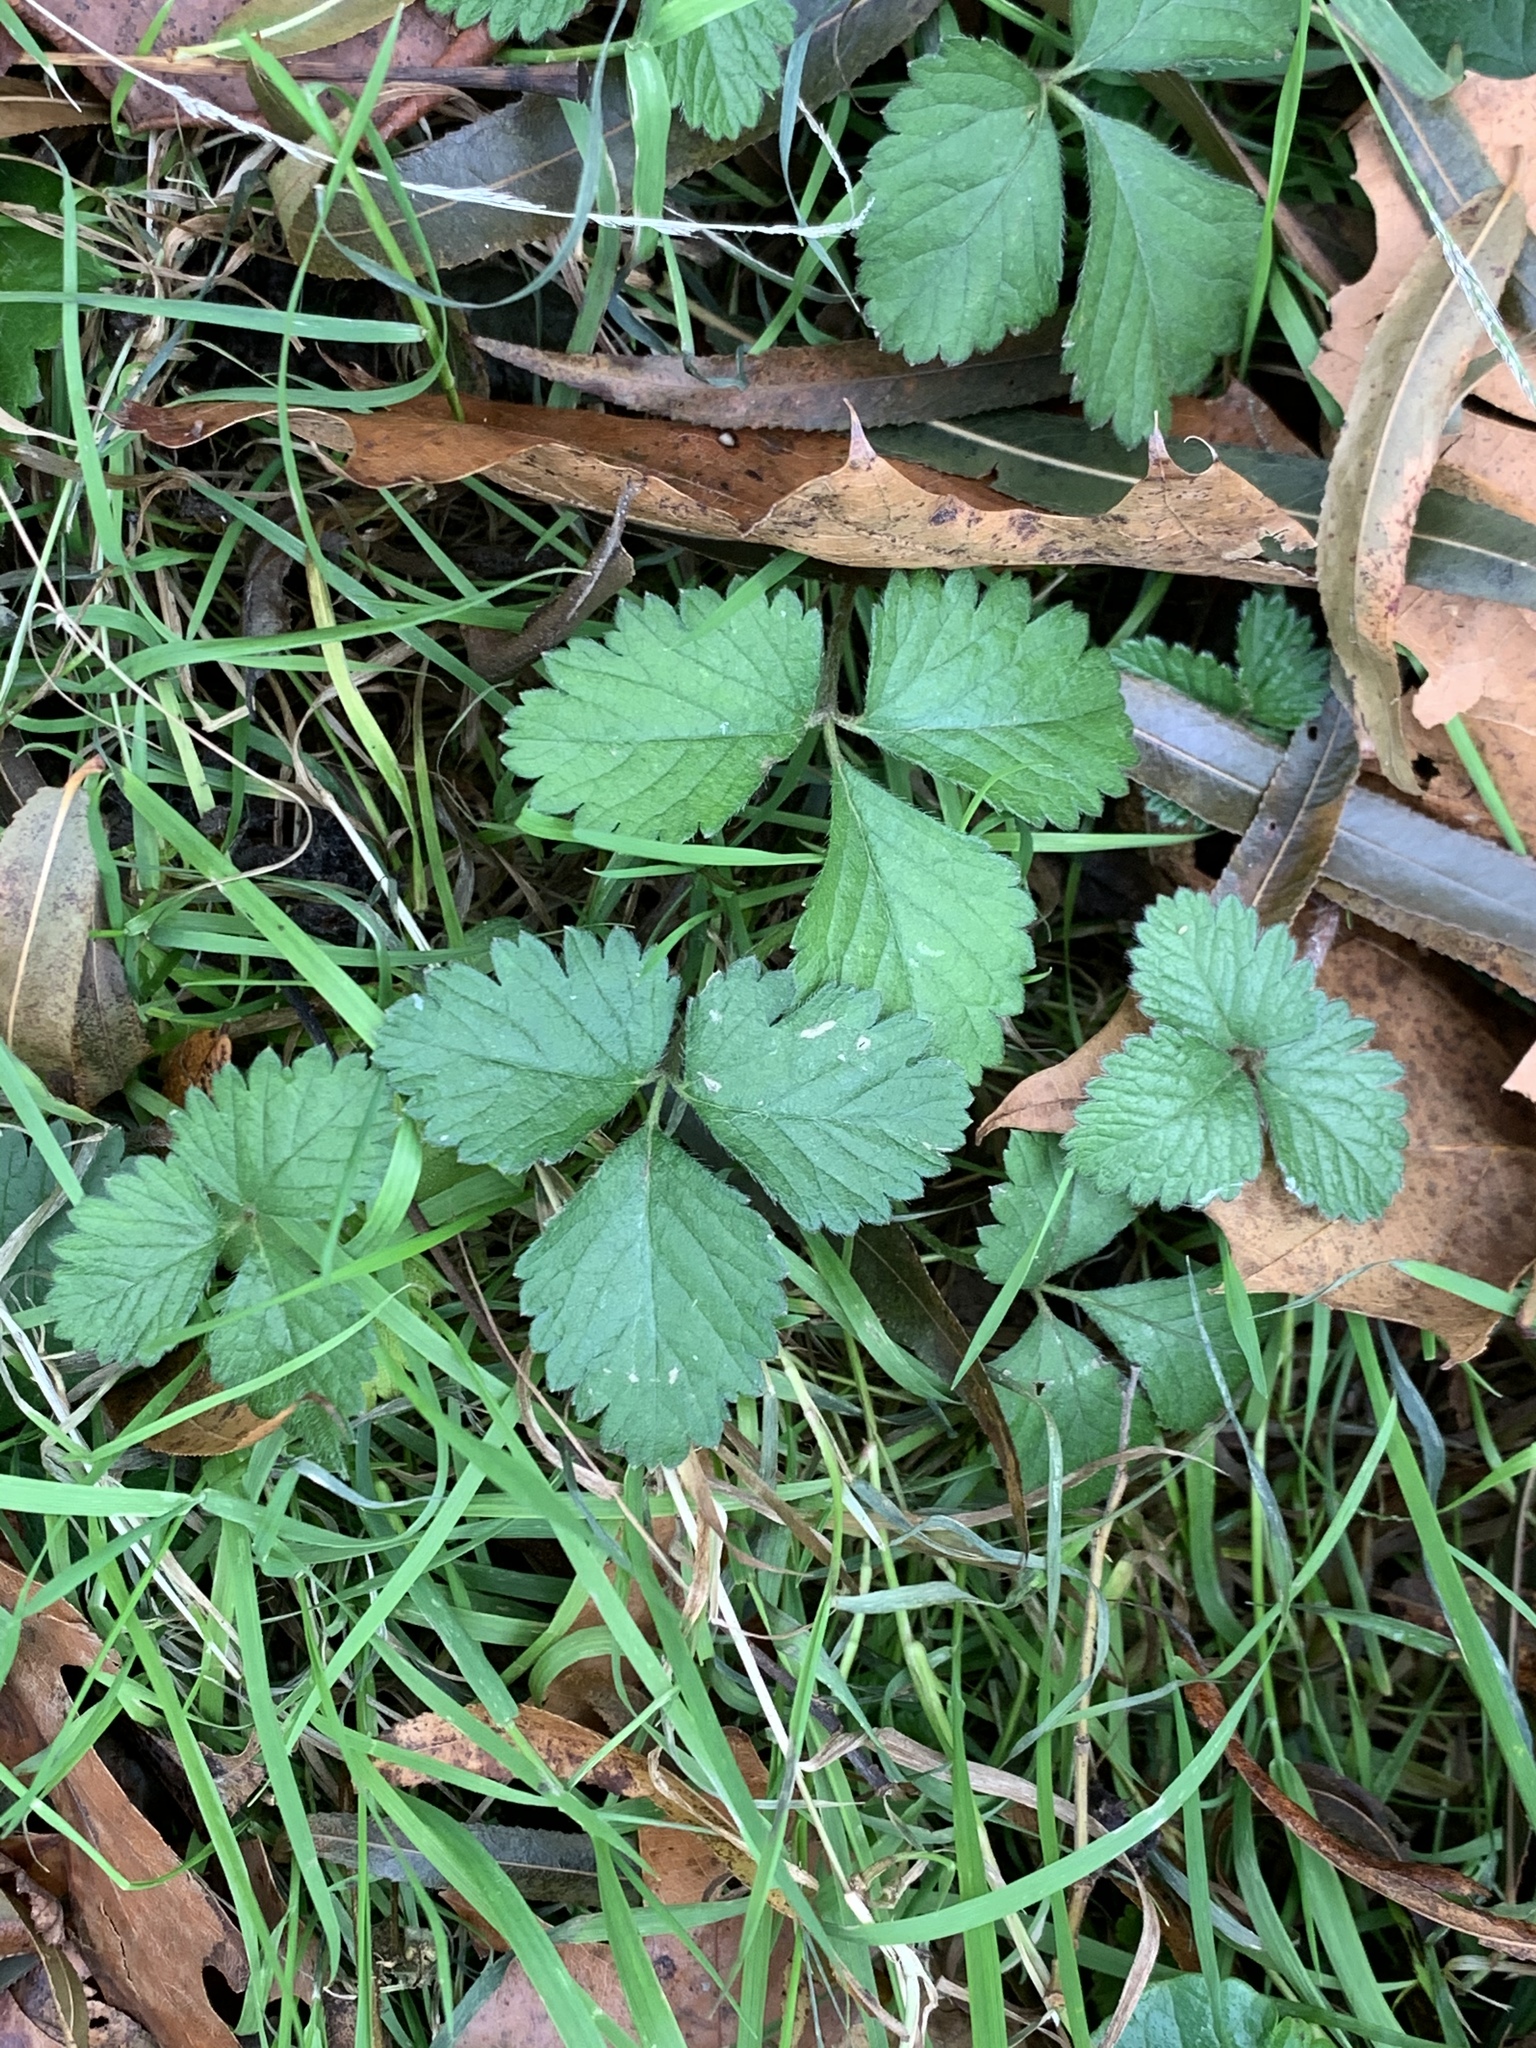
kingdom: Plantae
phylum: Tracheophyta
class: Magnoliopsida
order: Rosales
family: Rosaceae
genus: Potentilla
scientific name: Potentilla indica
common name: Yellow-flowered strawberry
